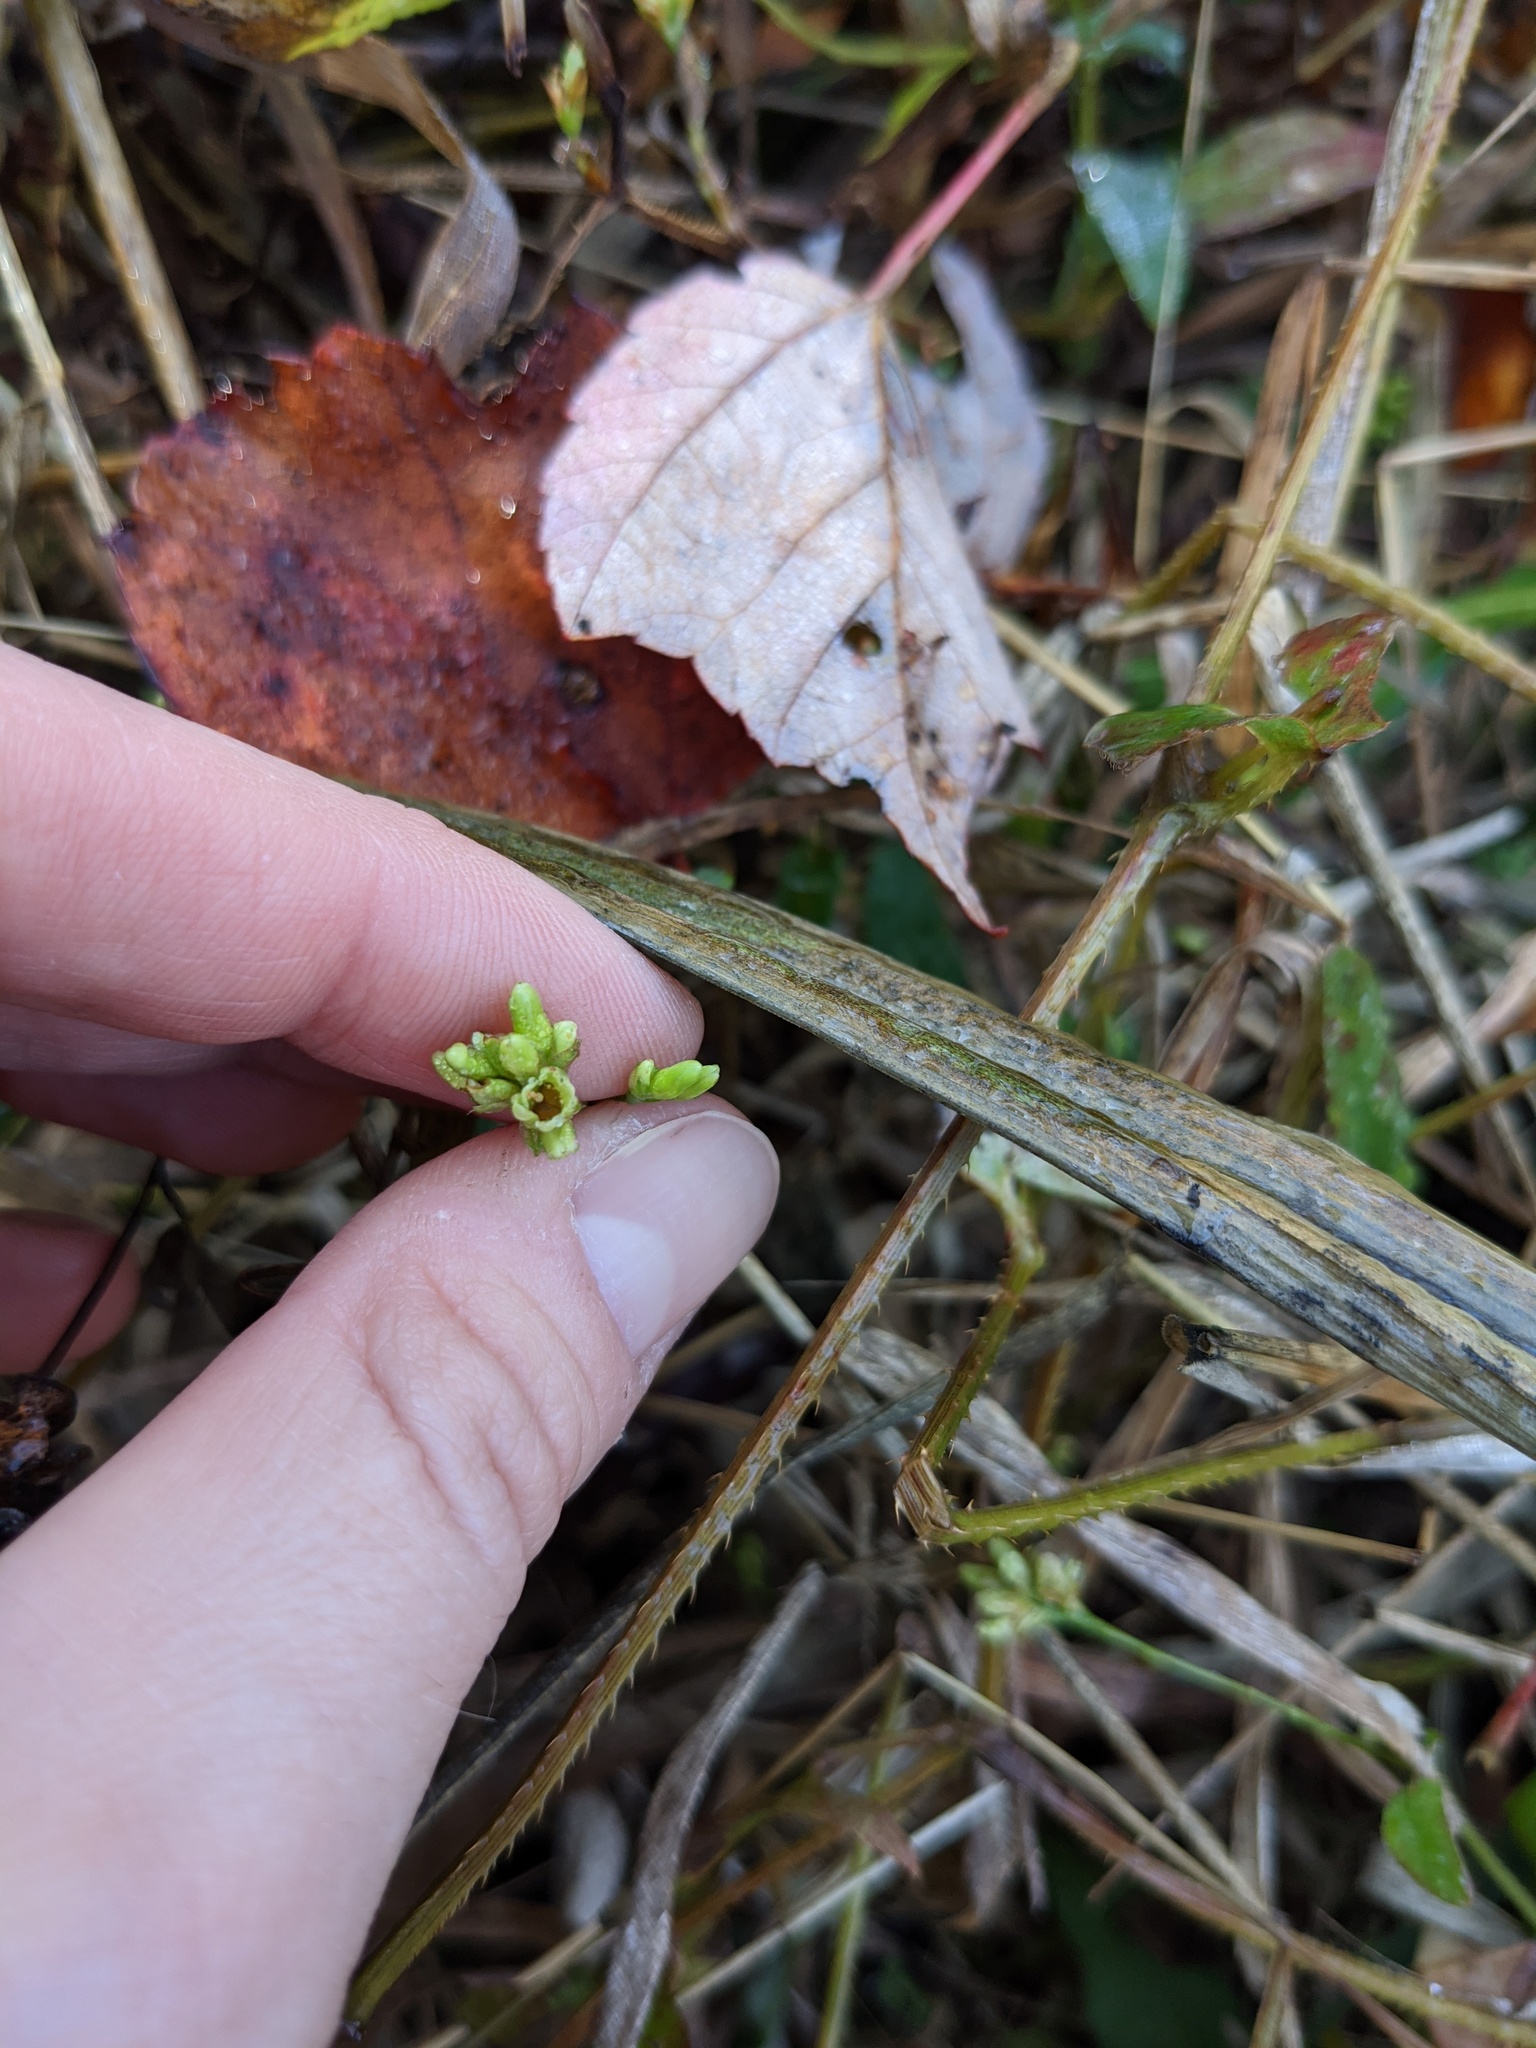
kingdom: Plantae
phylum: Tracheophyta
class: Magnoliopsida
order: Caryophyllales
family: Polygonaceae
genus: Persicaria
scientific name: Persicaria sagittata
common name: American tearthumb
